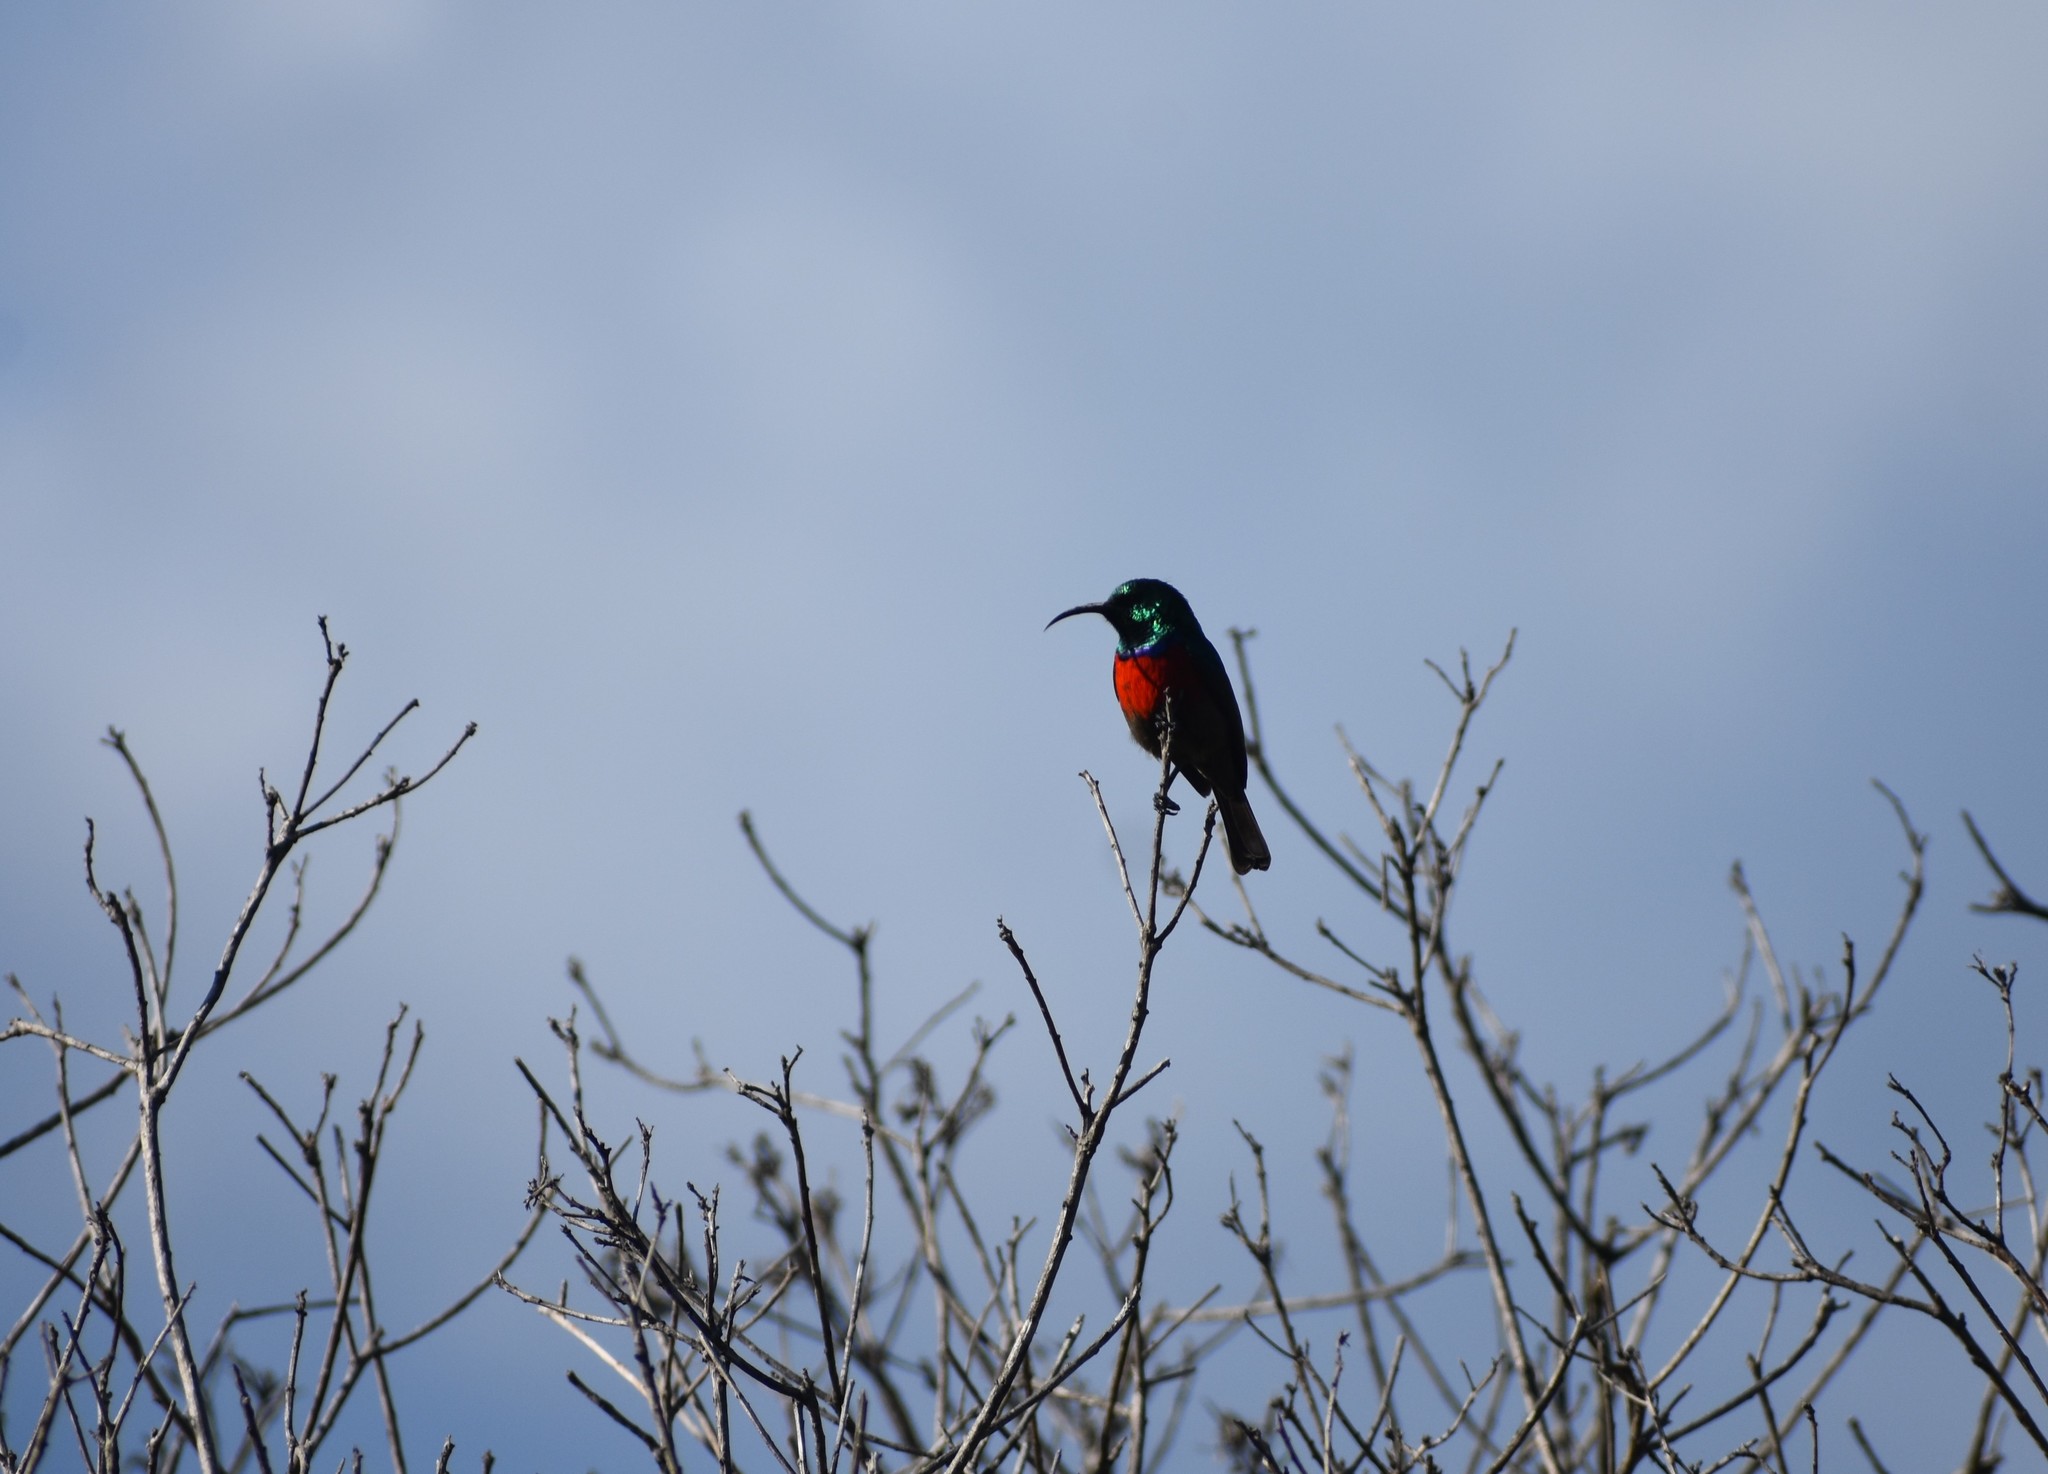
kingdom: Animalia
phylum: Chordata
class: Aves
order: Passeriformes
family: Nectariniidae
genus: Cinnyris
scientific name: Cinnyris afer
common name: Greater double-collared sunbird
